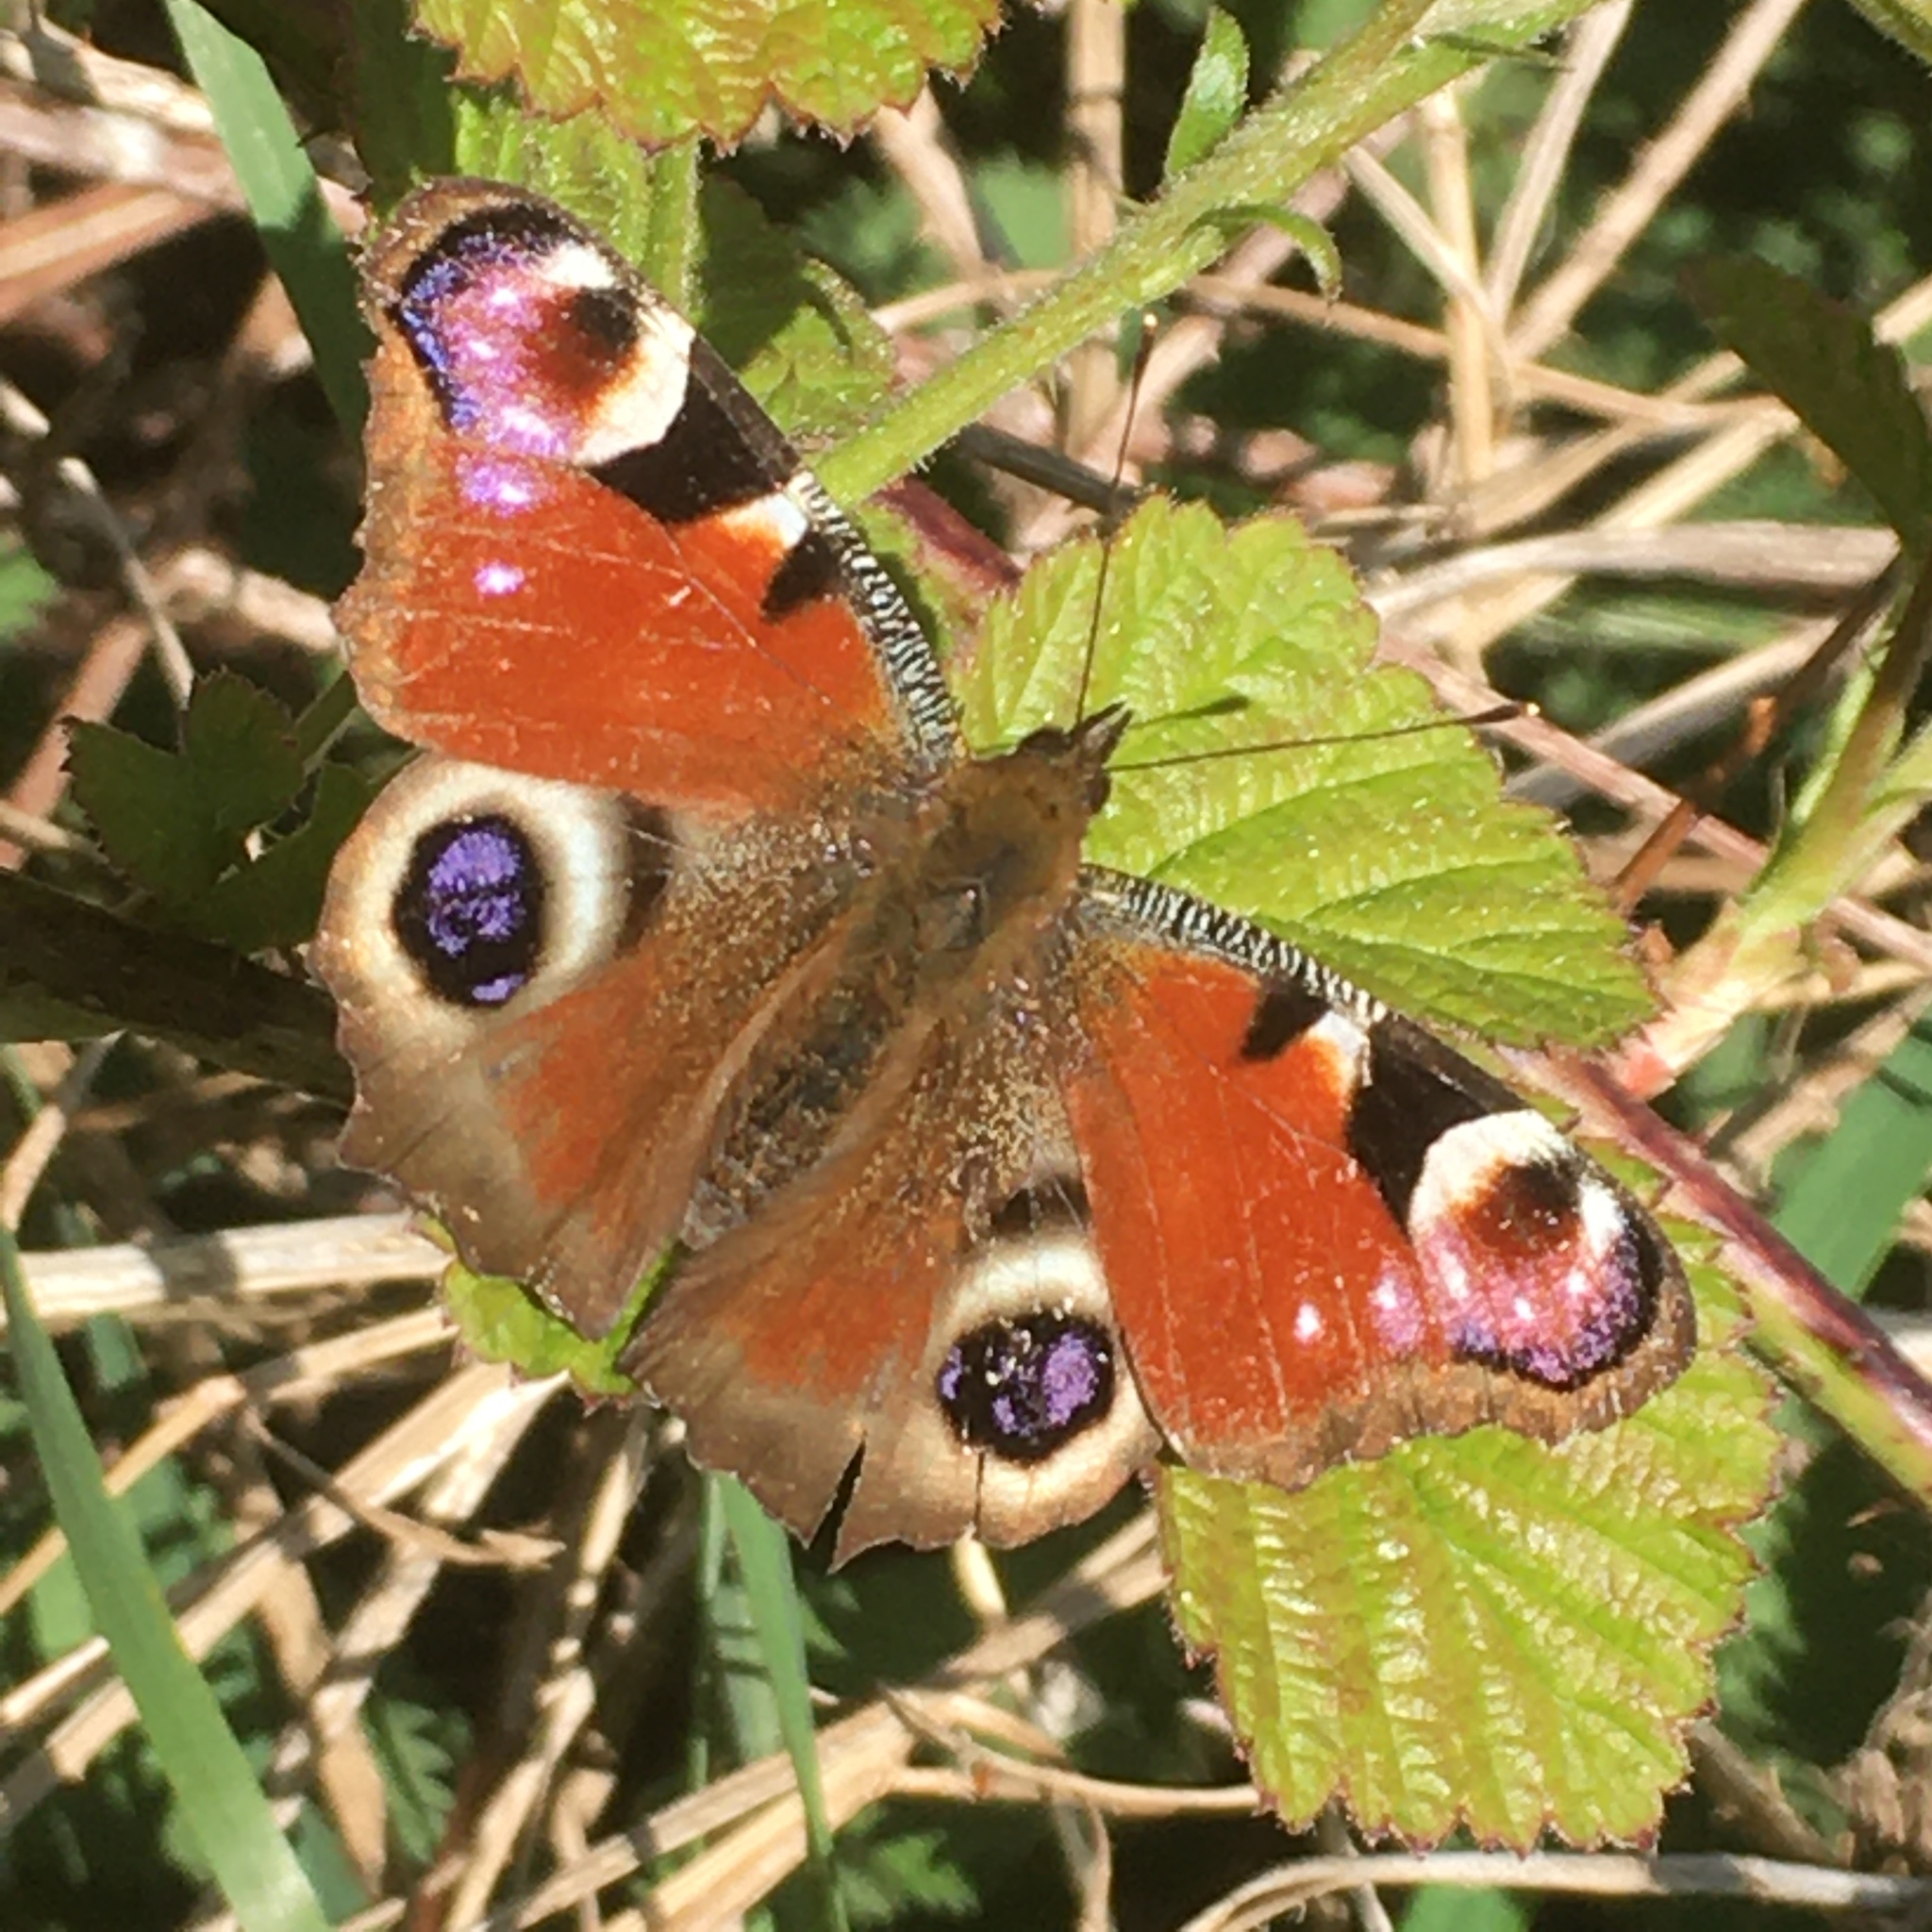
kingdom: Animalia
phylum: Arthropoda
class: Insecta
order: Lepidoptera
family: Nymphalidae
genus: Aglais
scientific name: Aglais io
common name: Peacock
